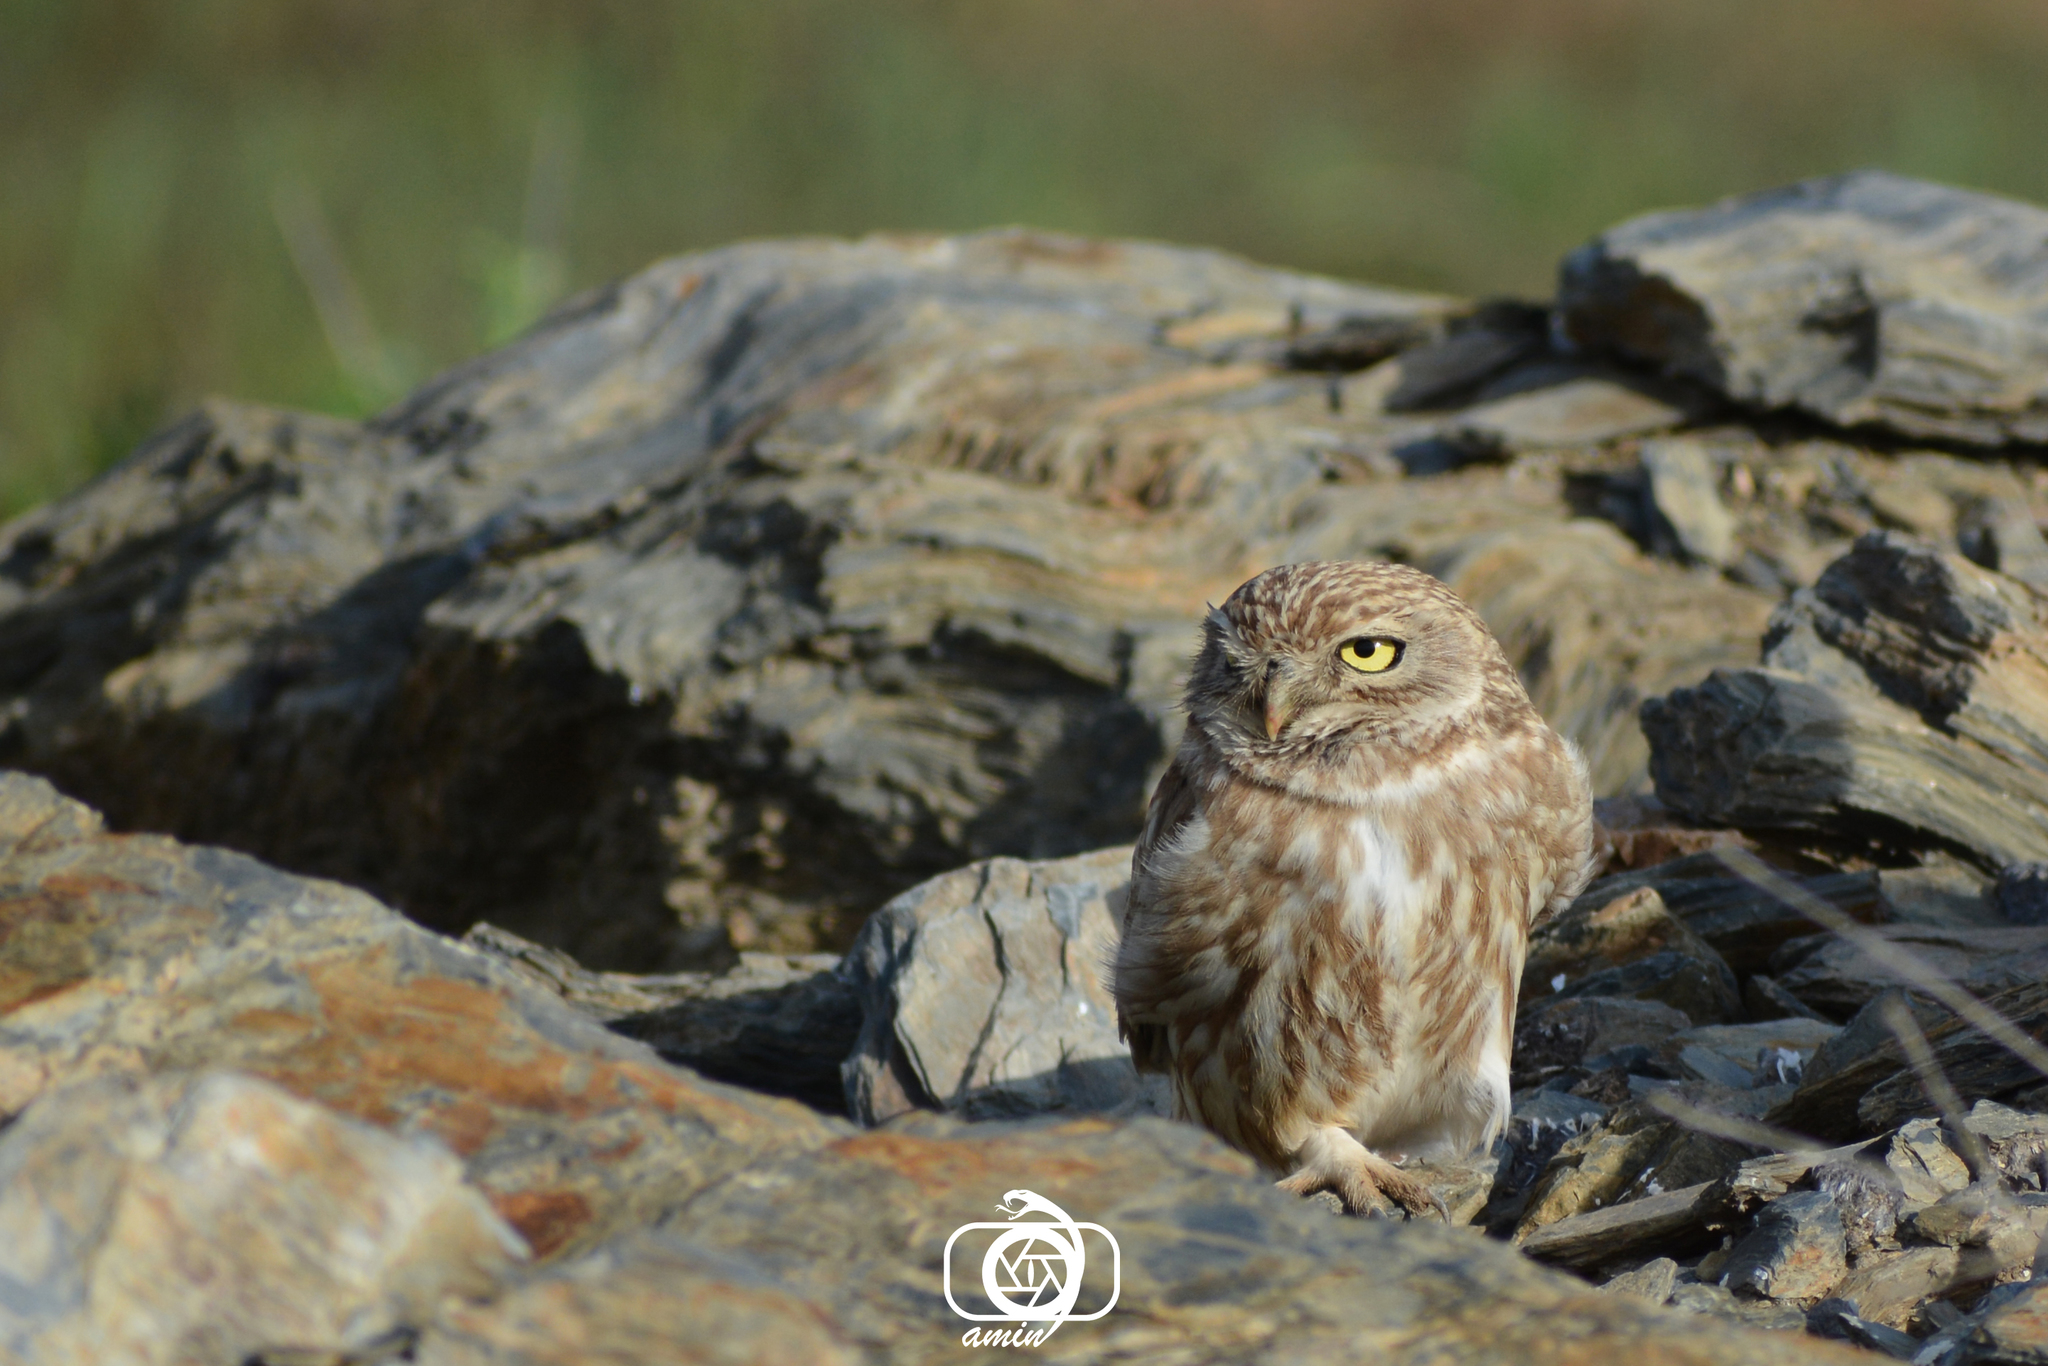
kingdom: Animalia
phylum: Chordata
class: Aves
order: Strigiformes
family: Strigidae
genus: Athene
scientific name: Athene noctua
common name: Little owl
